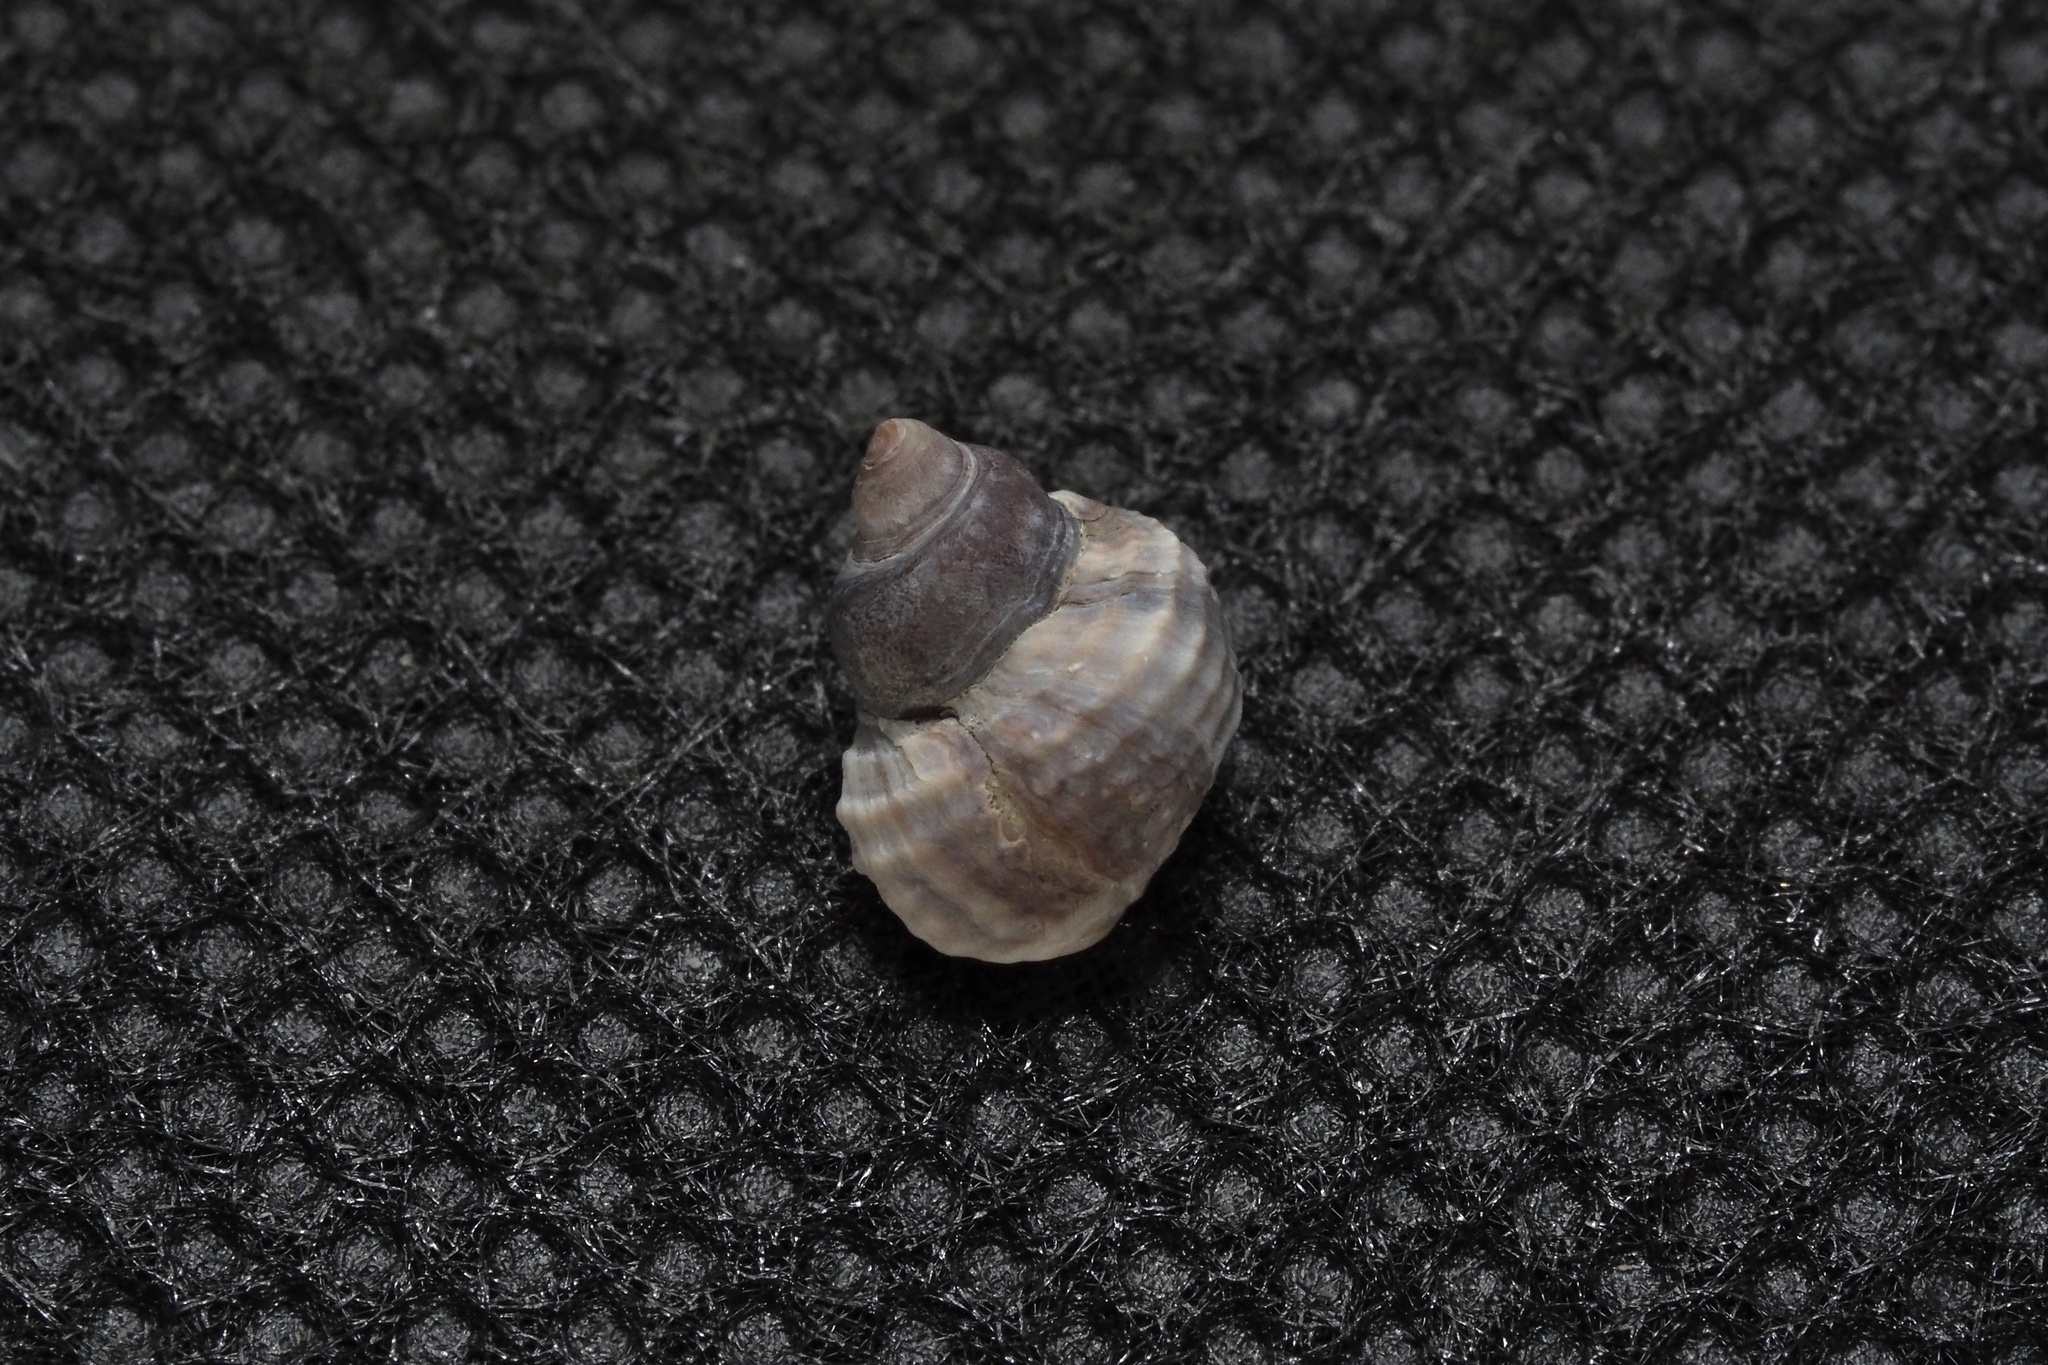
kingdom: Animalia
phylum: Mollusca
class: Gastropoda
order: Littorinimorpha
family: Littorinidae
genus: Echinolittorina
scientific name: Echinolittorina radiata
